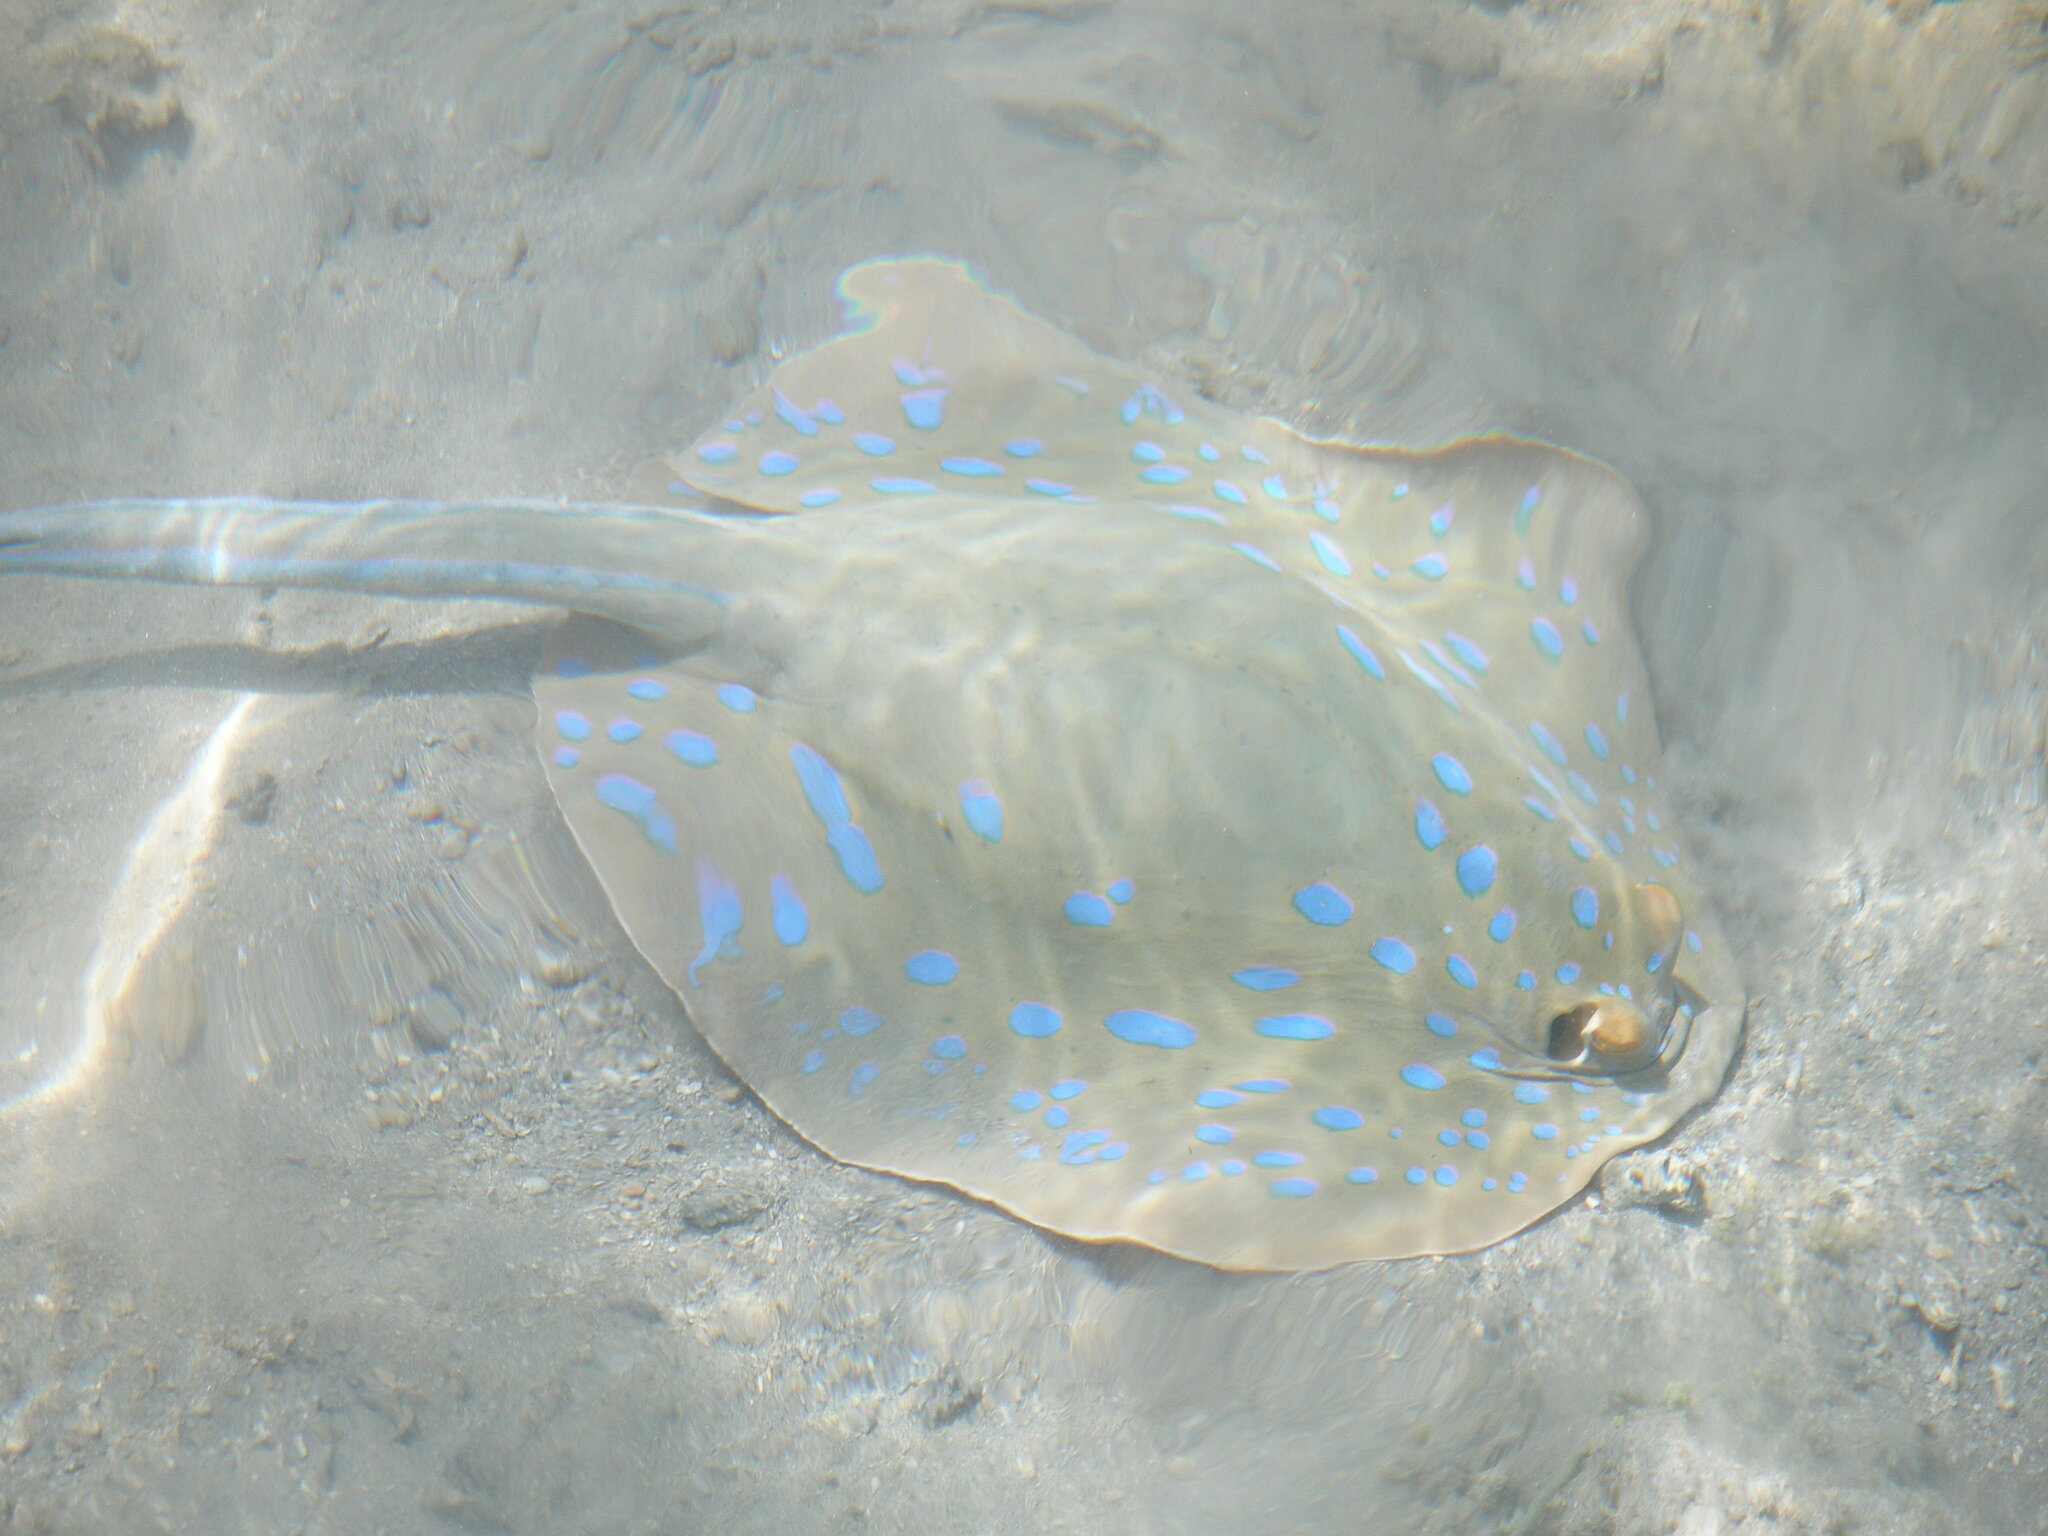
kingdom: Animalia
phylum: Chordata
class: Elasmobranchii
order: Myliobatiformes
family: Dasyatidae
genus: Taeniura
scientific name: Taeniura lymma
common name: Bluespotted ribbontail ray
